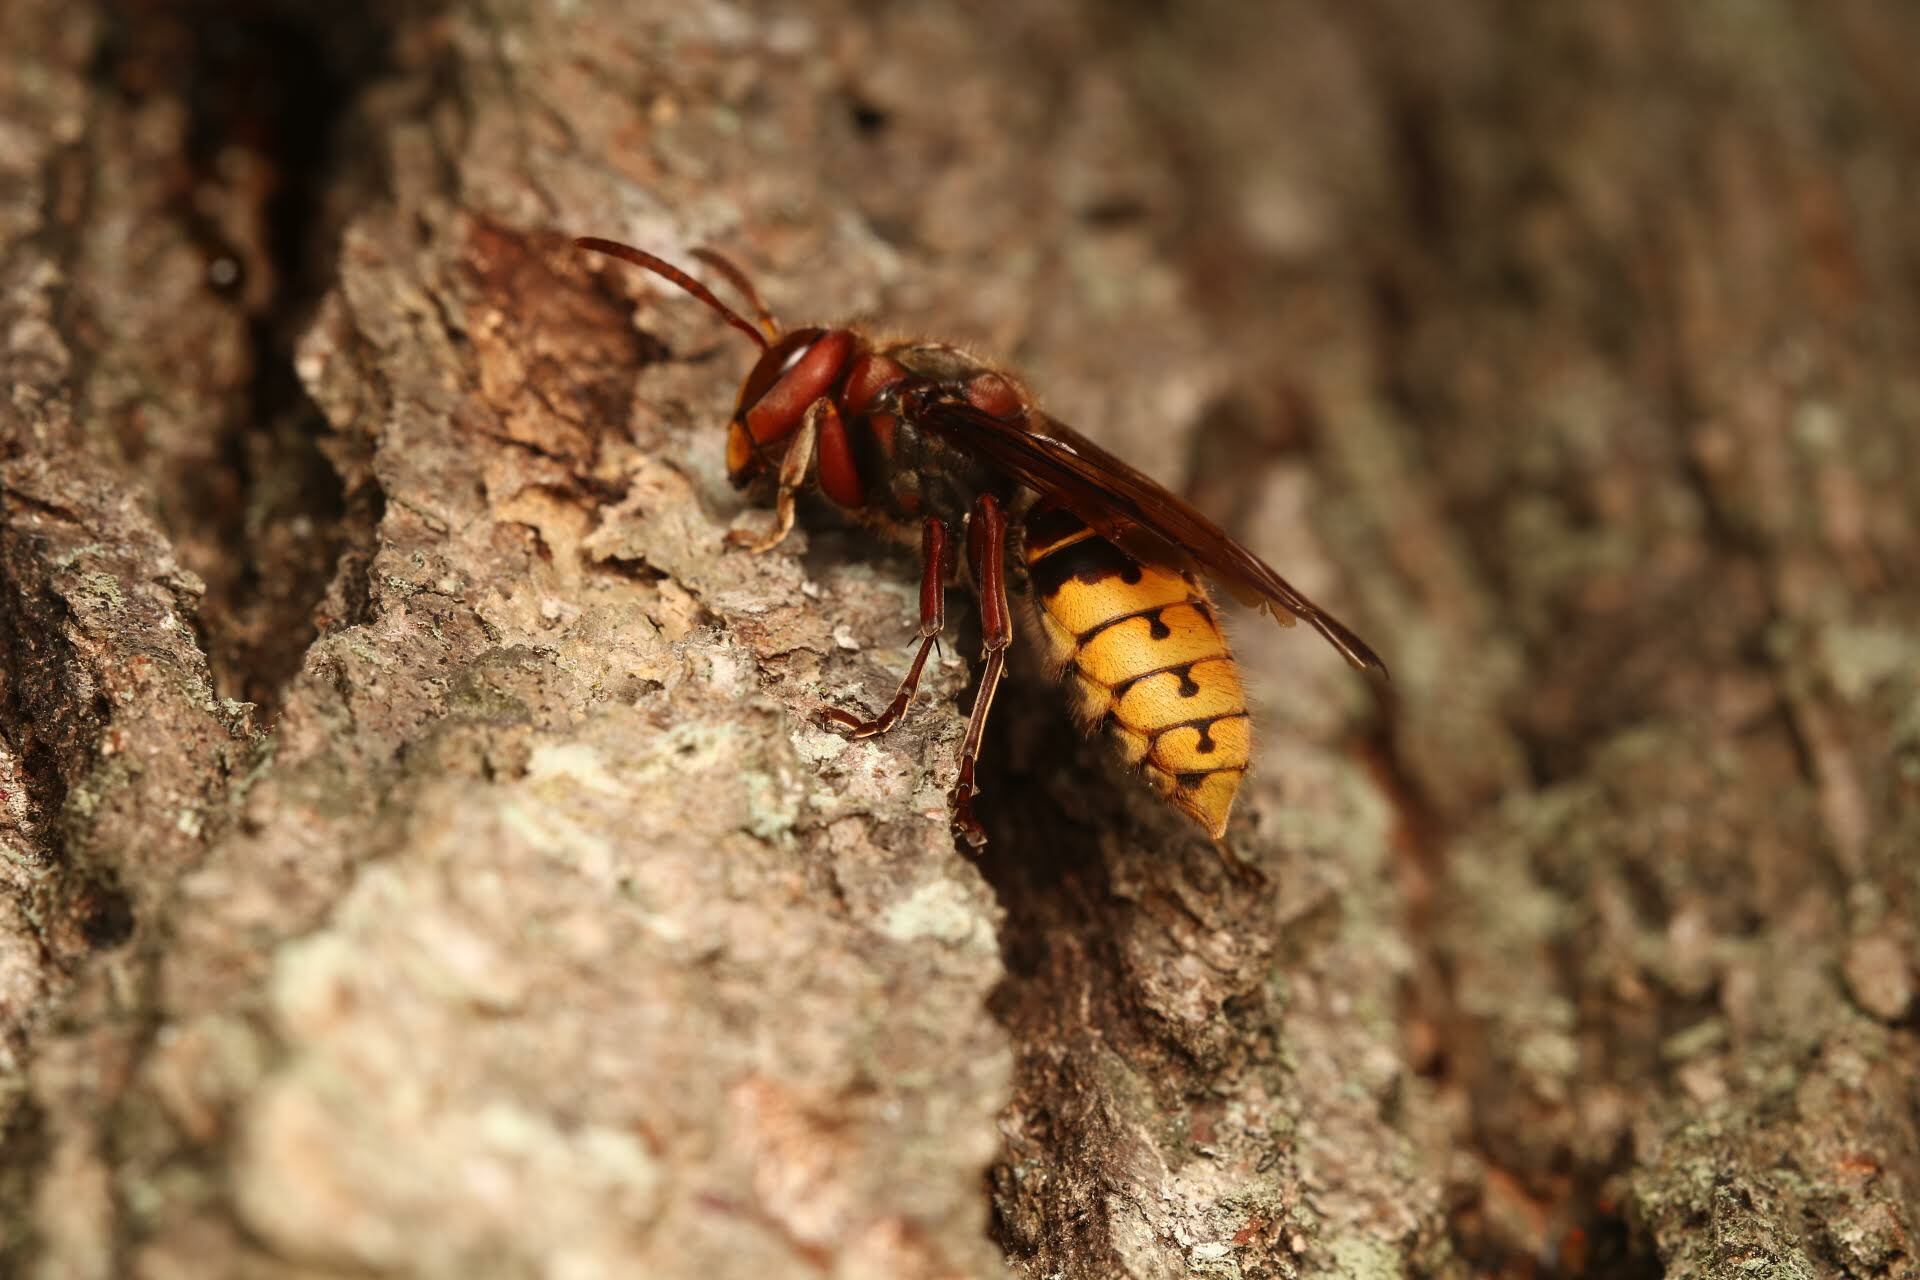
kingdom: Animalia
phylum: Arthropoda
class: Insecta
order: Hymenoptera
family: Vespidae
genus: Vespa
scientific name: Vespa crabro
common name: Hornet
